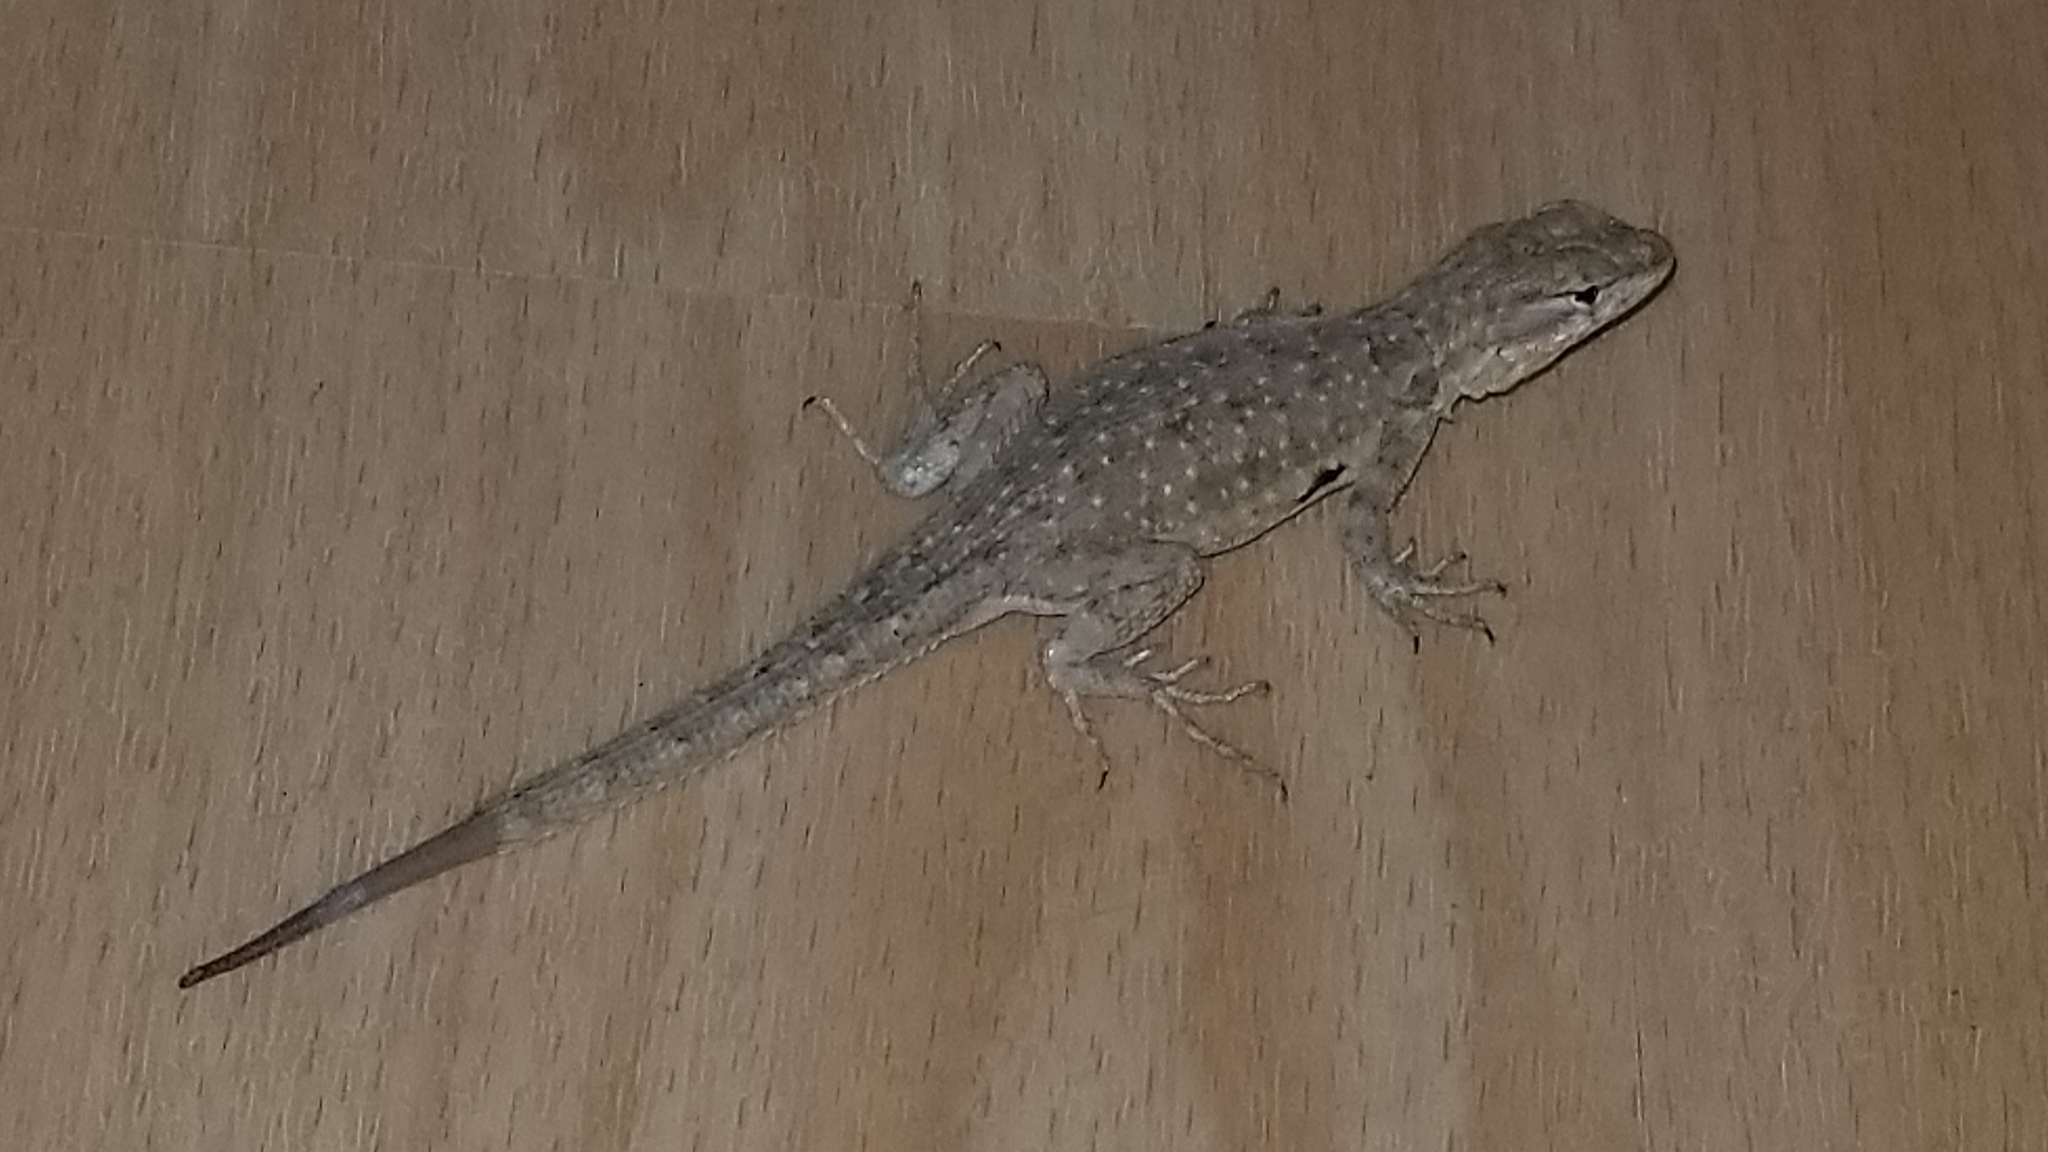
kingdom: Animalia
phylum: Chordata
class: Squamata
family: Phrynosomatidae
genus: Uta
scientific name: Uta stansburiana
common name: Side-blotched lizard
